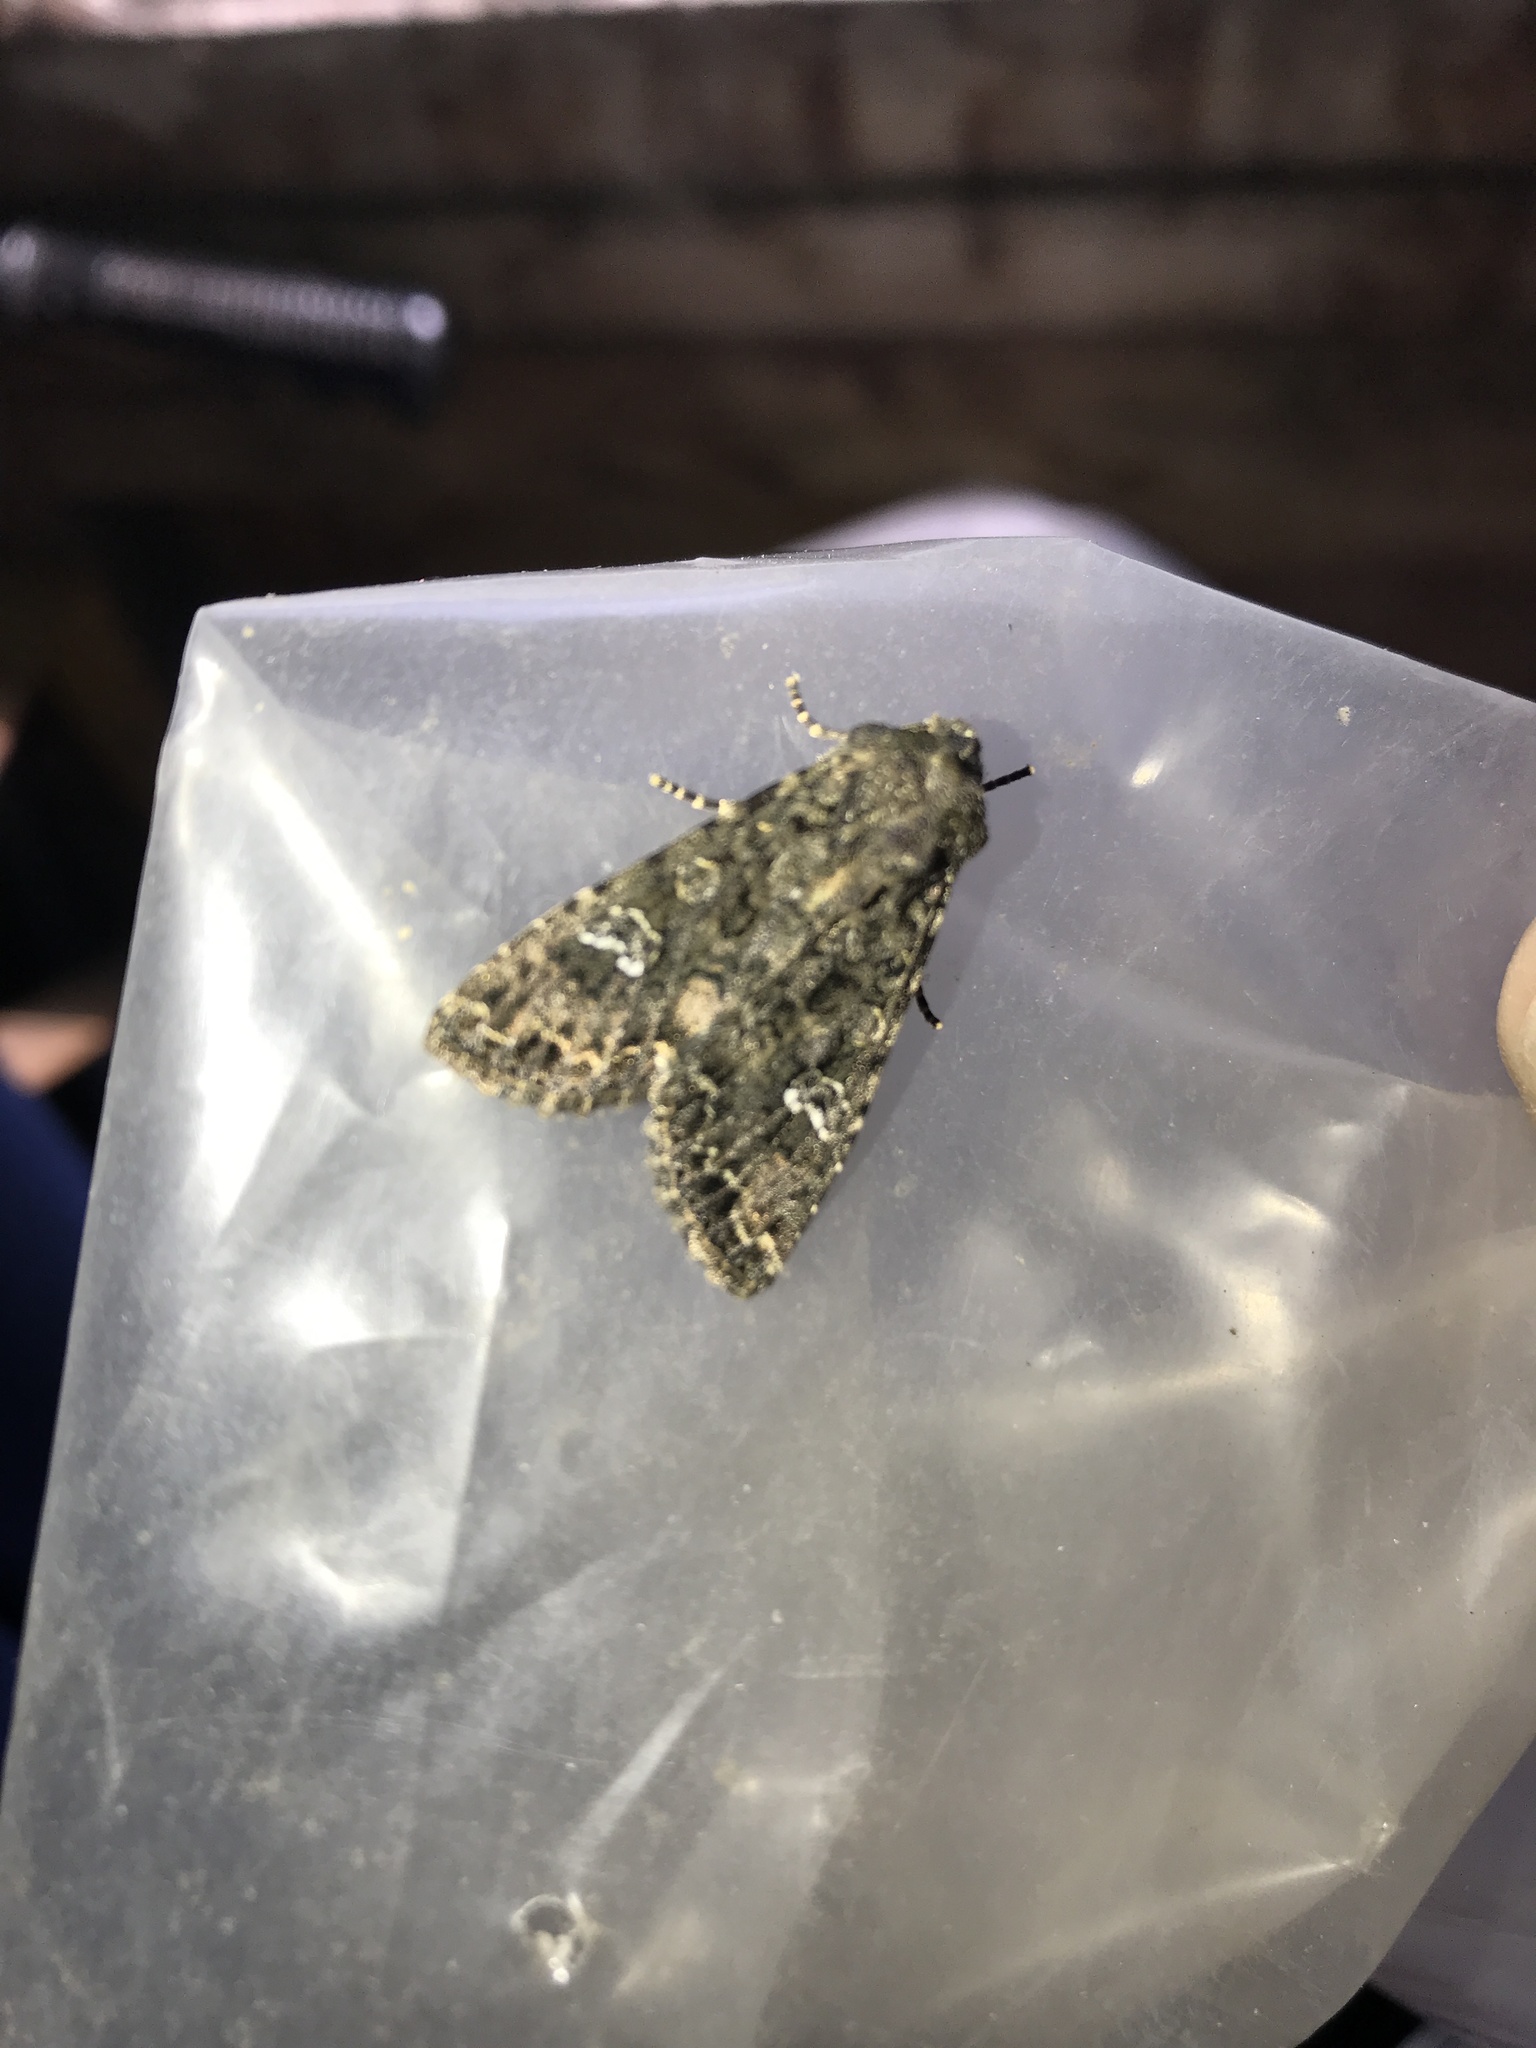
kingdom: Animalia
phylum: Arthropoda
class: Insecta
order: Lepidoptera
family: Noctuidae
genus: Mamestra
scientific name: Mamestra brassicae
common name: Cabbage moth
